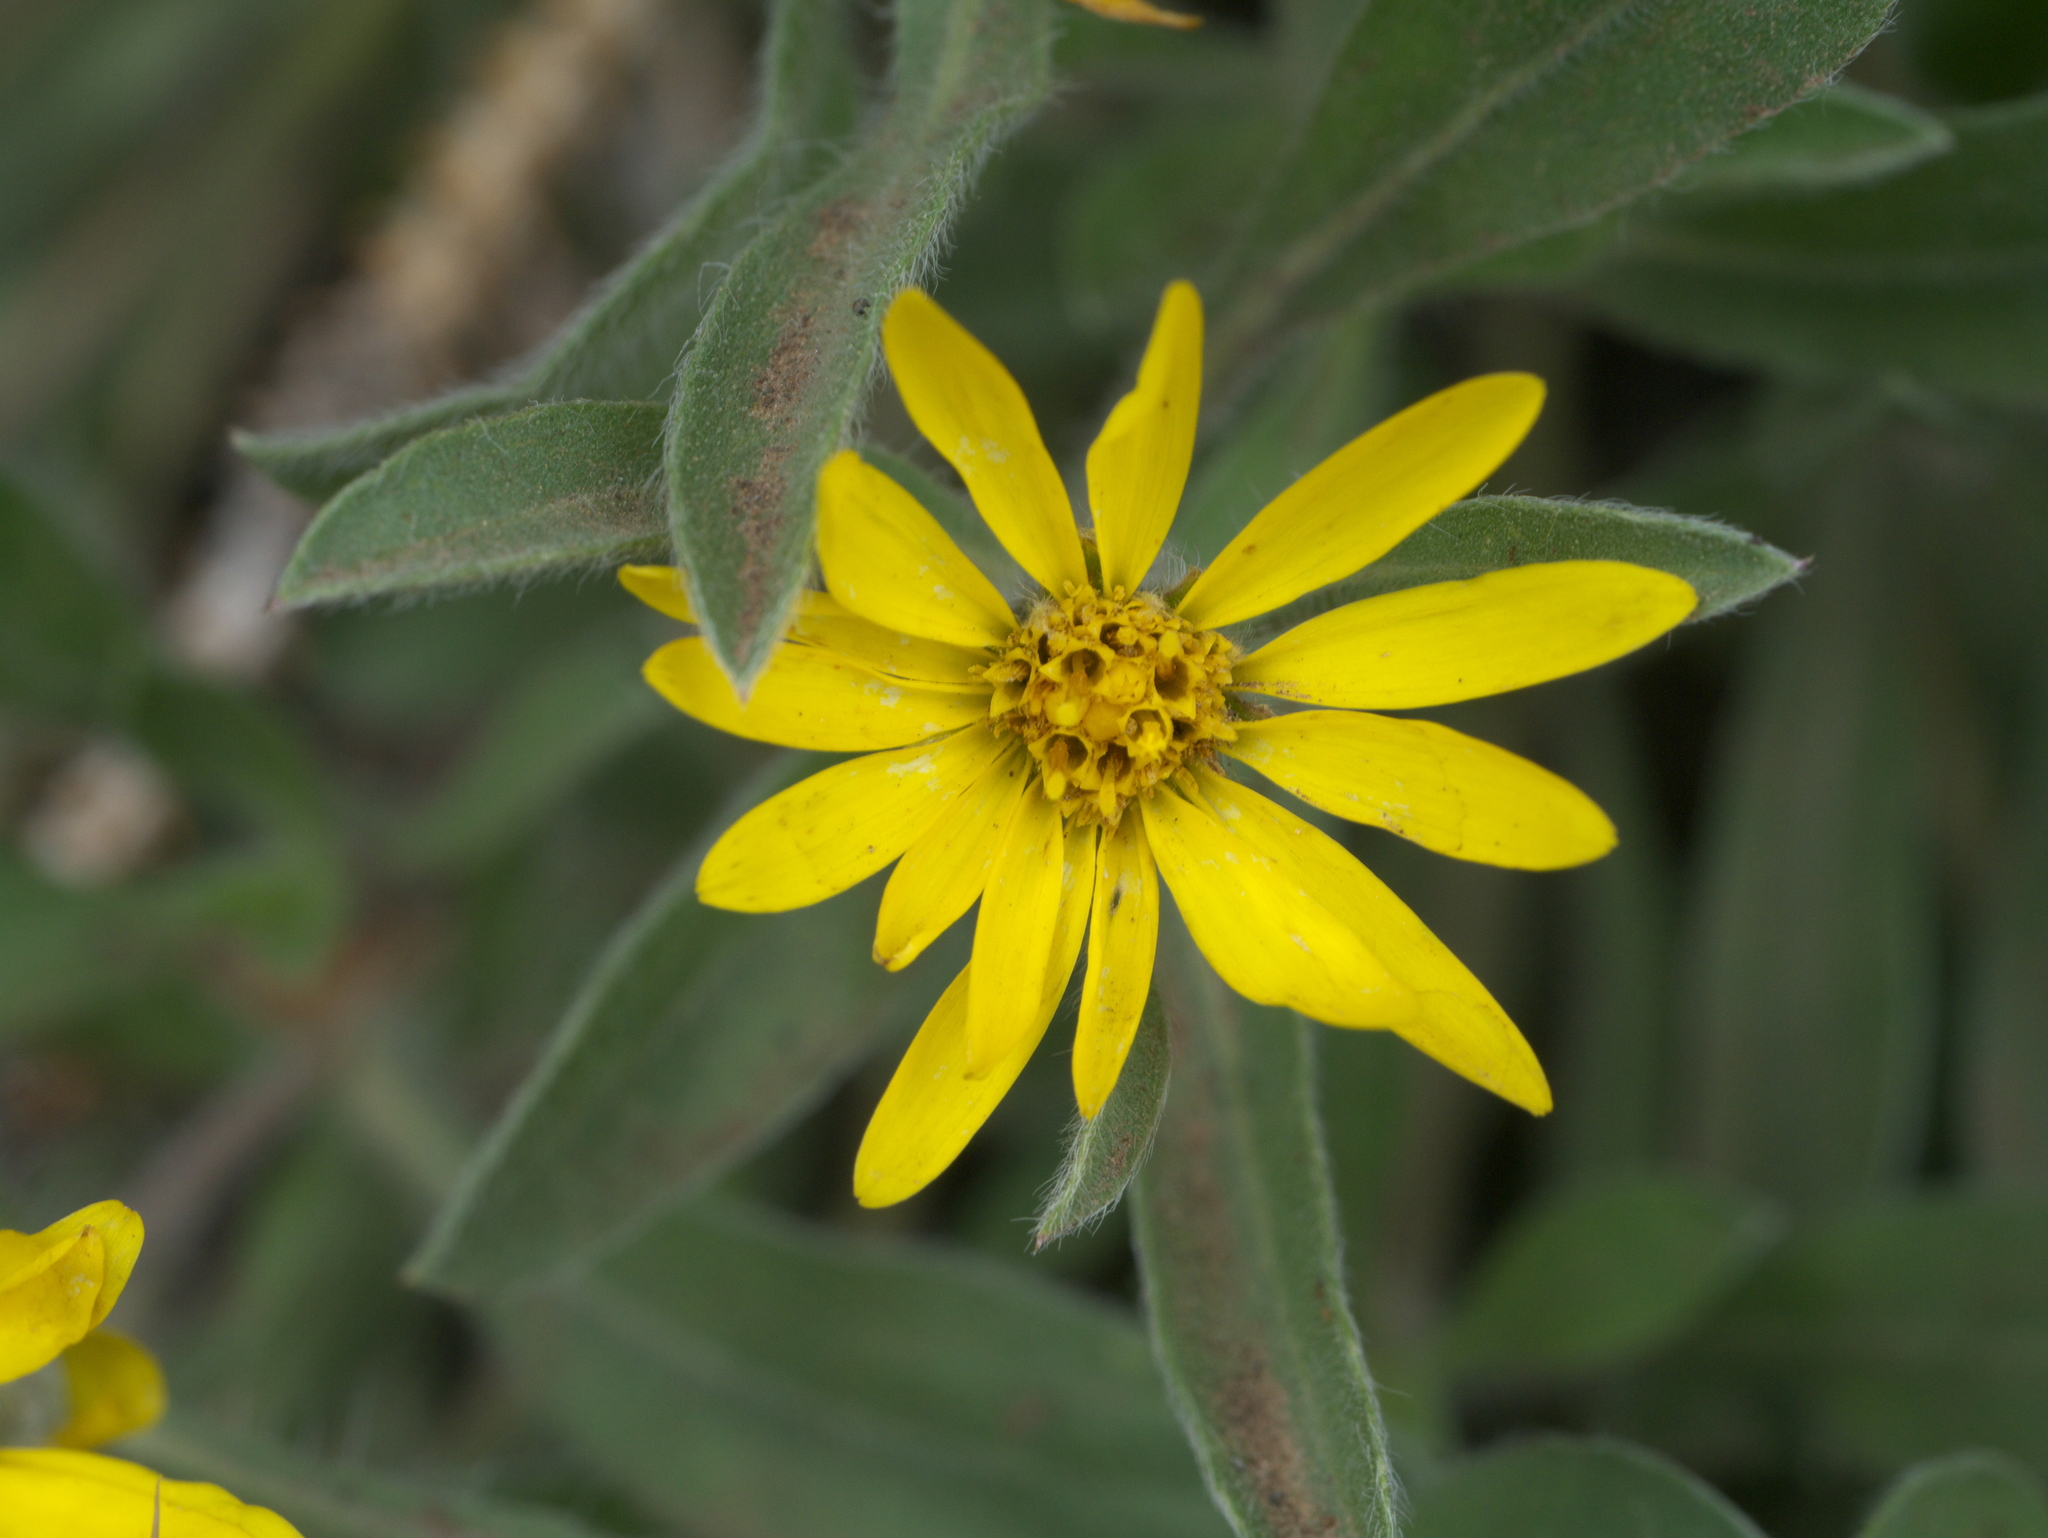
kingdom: Plantae
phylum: Tracheophyta
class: Magnoliopsida
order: Asterales
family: Asteraceae
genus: Heterotheca
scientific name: Heterotheca pumila
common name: Alpine golden-aster
